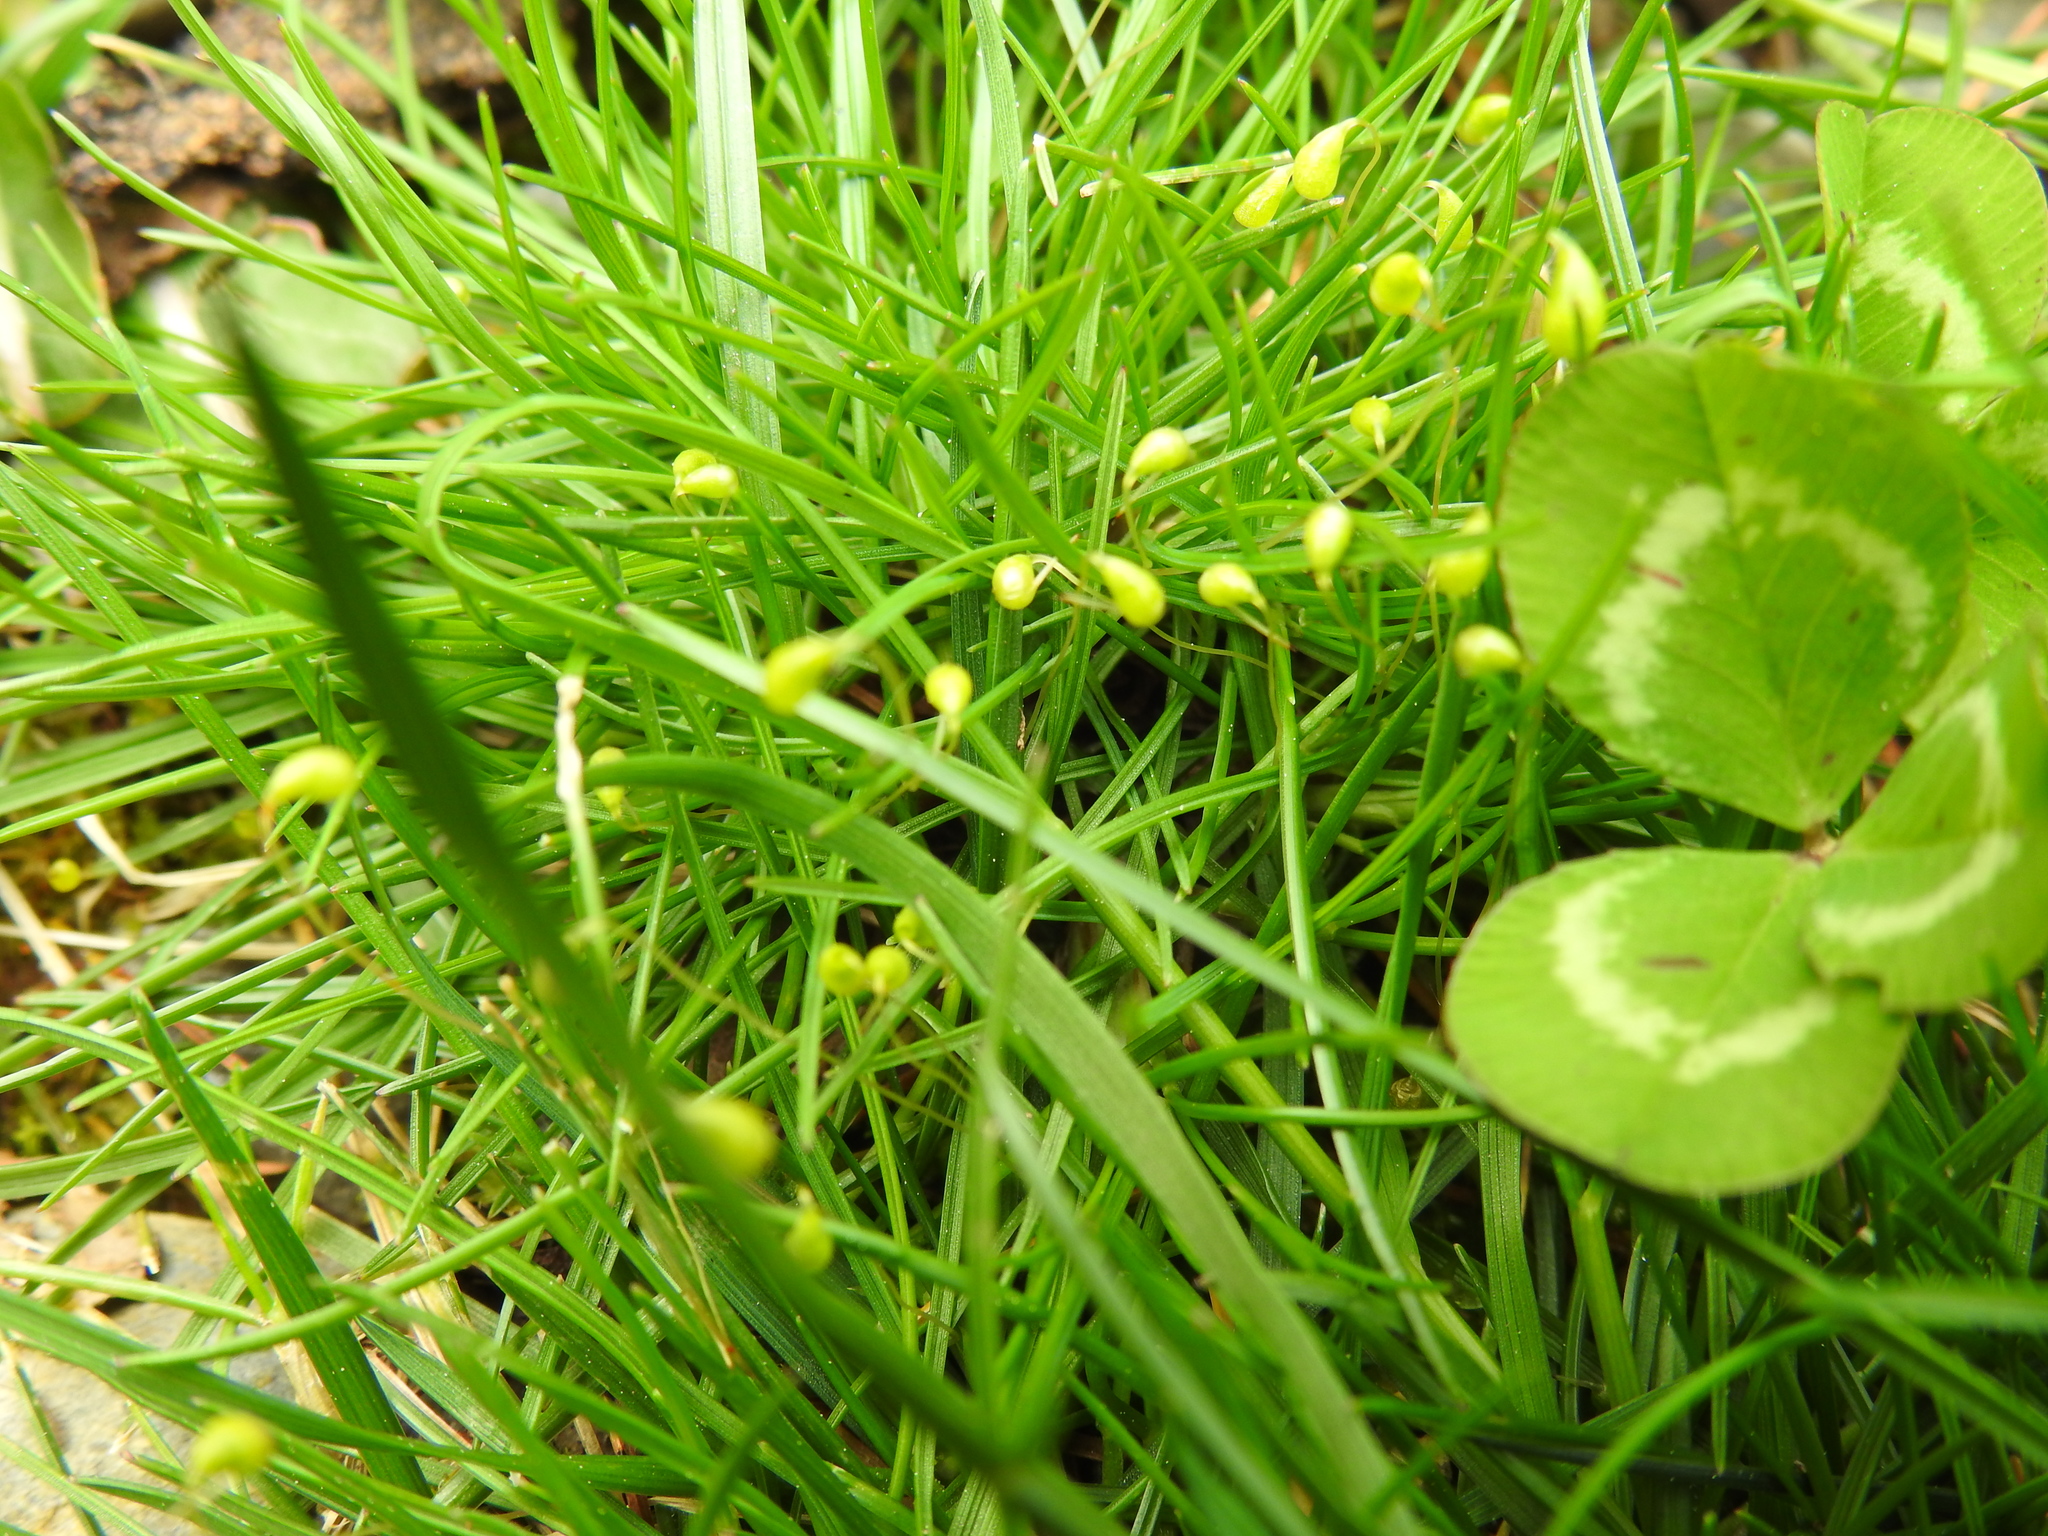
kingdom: Plantae
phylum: Bryophyta
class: Bryopsida
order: Funariales
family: Funariaceae
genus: Funaria
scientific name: Funaria hygrometrica
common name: Common cord moss
